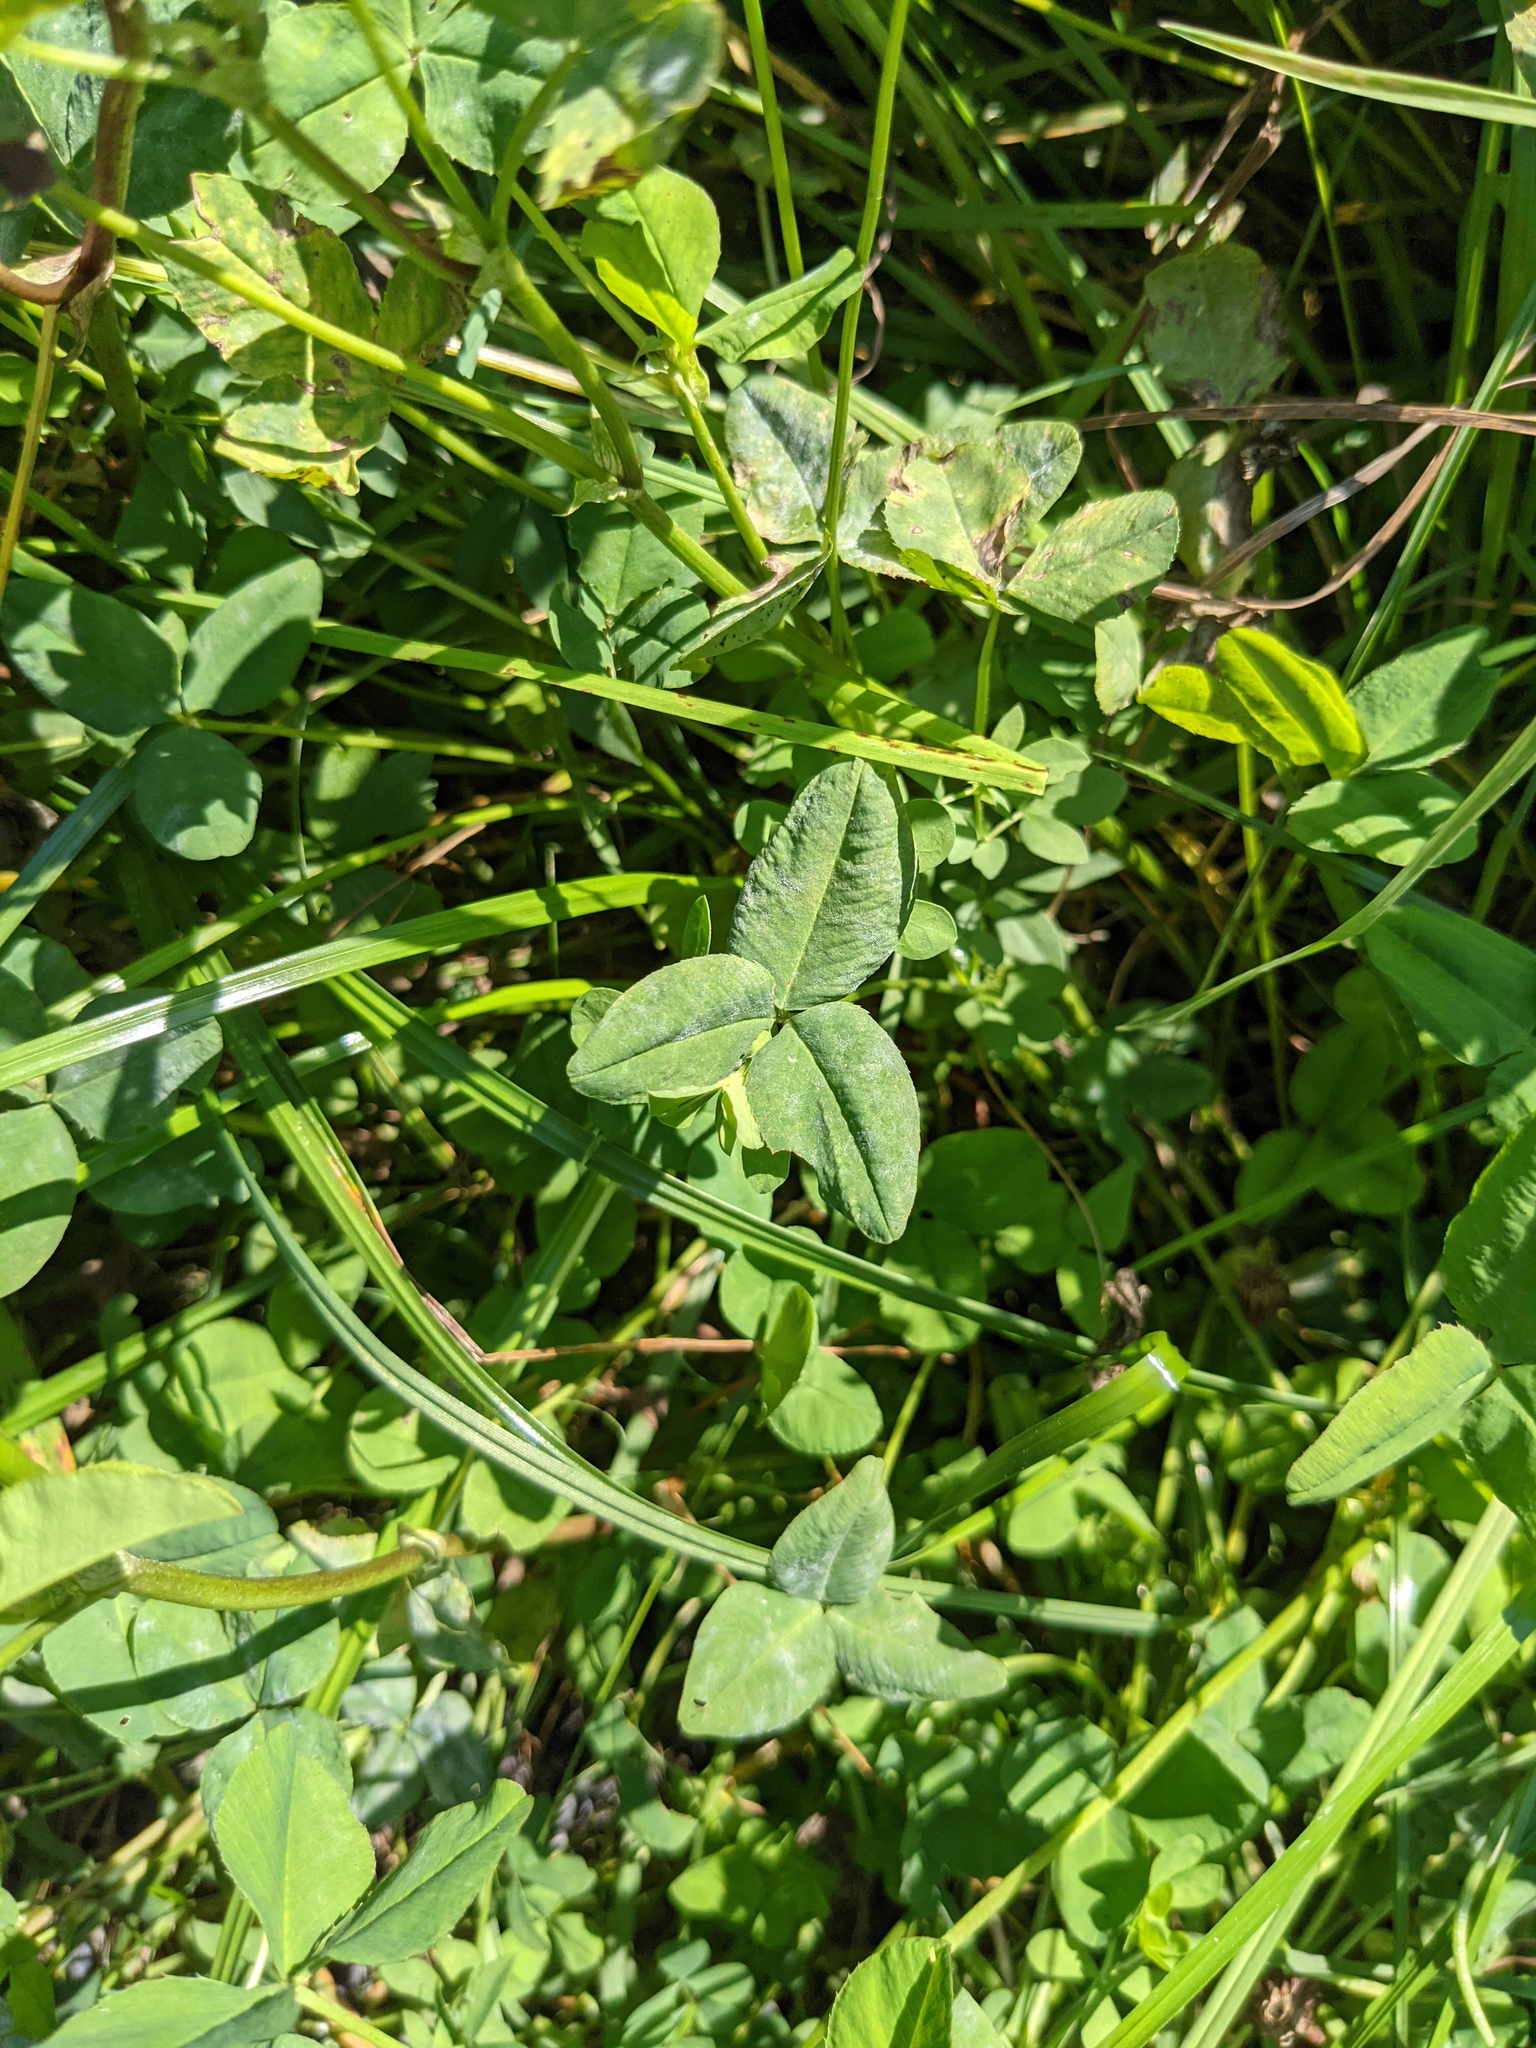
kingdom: Plantae
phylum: Tracheophyta
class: Magnoliopsida
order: Fabales
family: Fabaceae
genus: Trifolium
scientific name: Trifolium hybridum
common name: Alsike clover
